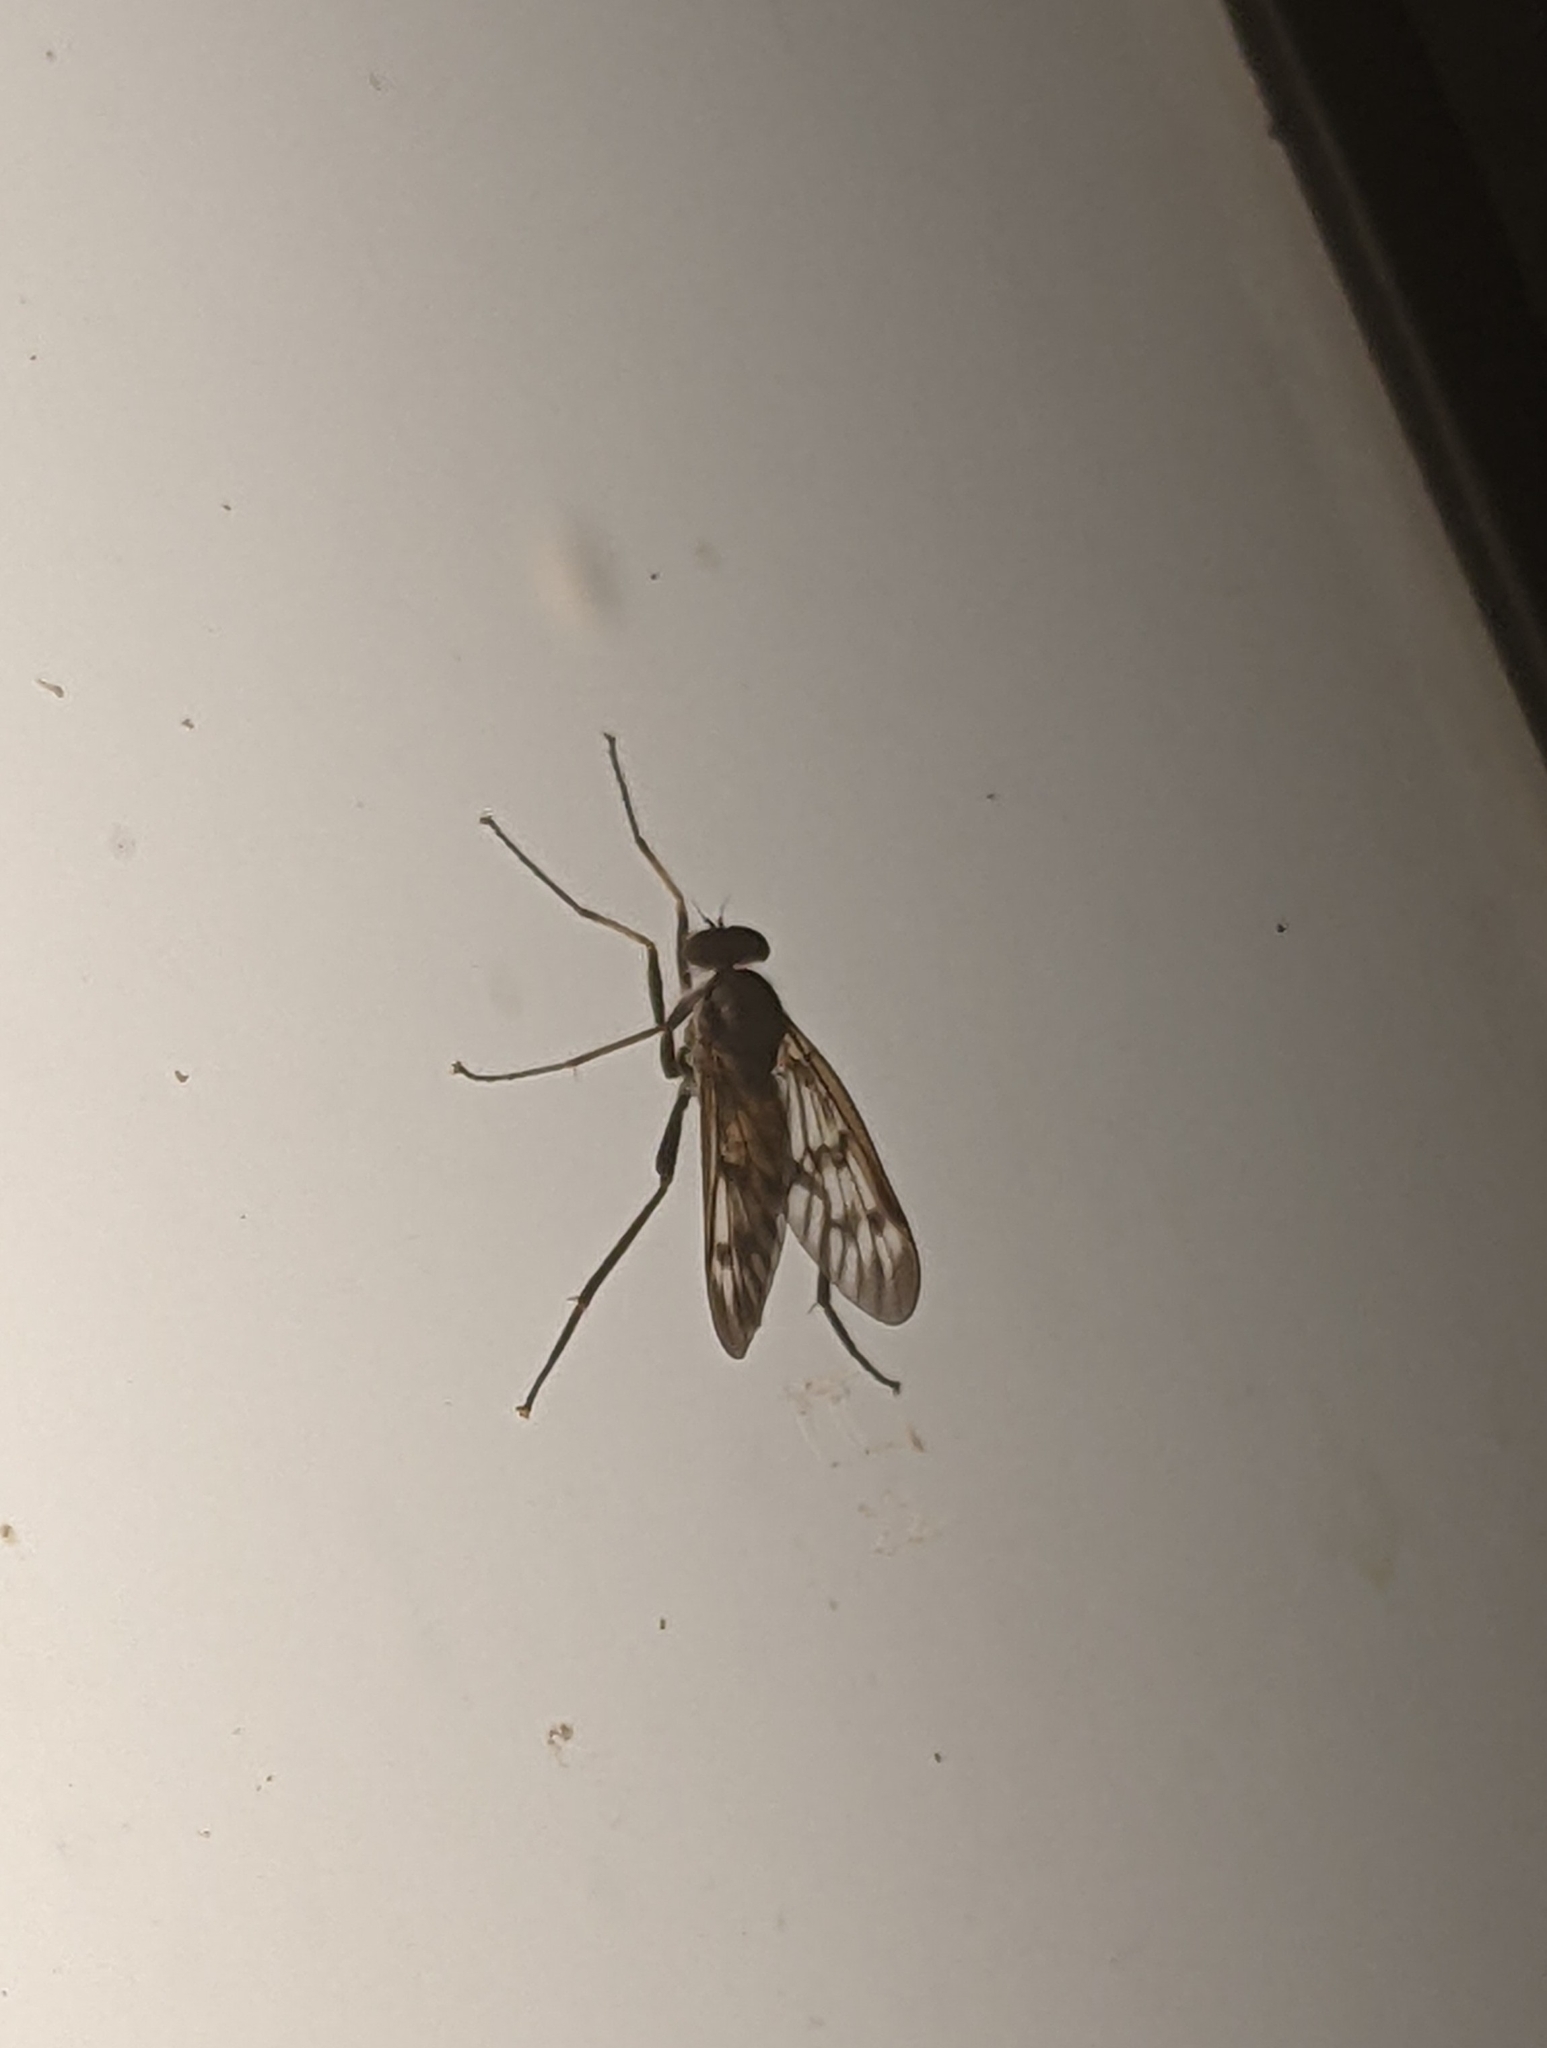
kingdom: Animalia
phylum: Arthropoda
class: Insecta
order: Diptera
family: Rhagionidae
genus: Rhagio
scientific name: Rhagio mystaceus
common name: Common snipe fly
